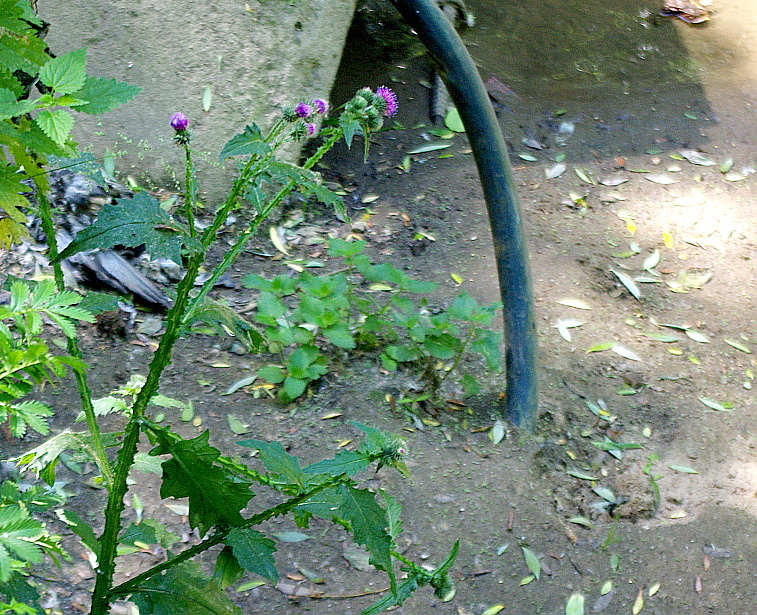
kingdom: Plantae
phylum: Tracheophyta
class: Magnoliopsida
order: Asterales
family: Asteraceae
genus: Carduus
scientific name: Carduus crispus
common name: Welted thistle
